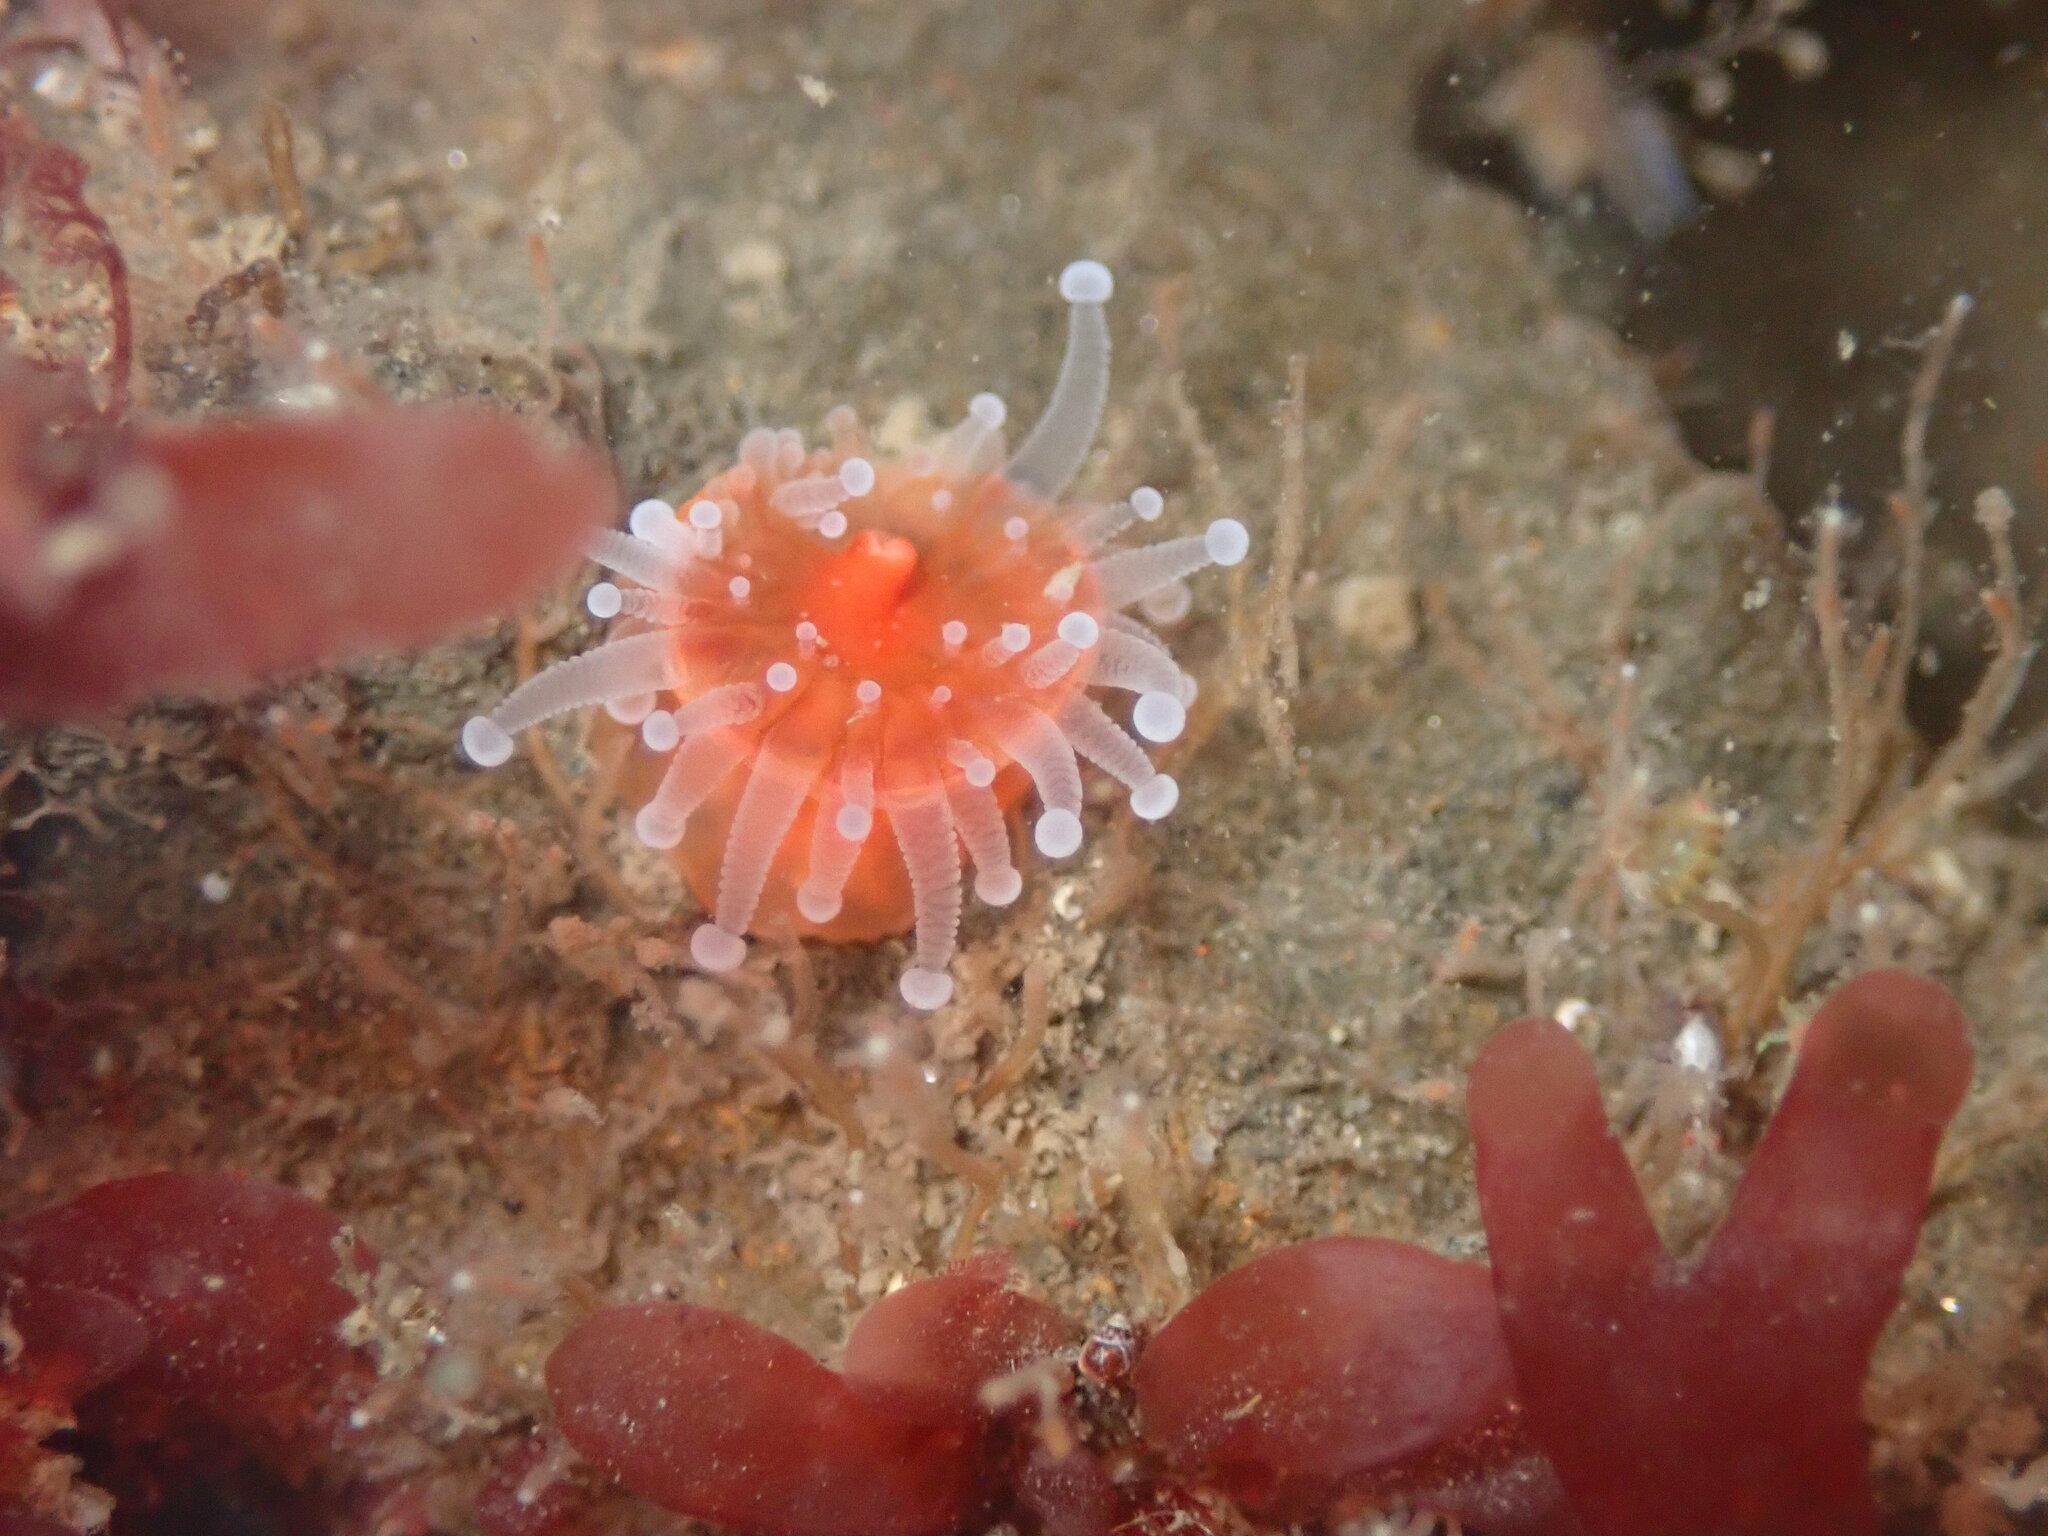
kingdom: Animalia
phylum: Cnidaria
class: Anthozoa
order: Corallimorpharia
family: Corallimorphidae
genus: Corynactis
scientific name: Corynactis californica
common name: Strawberry corallimorpharian
